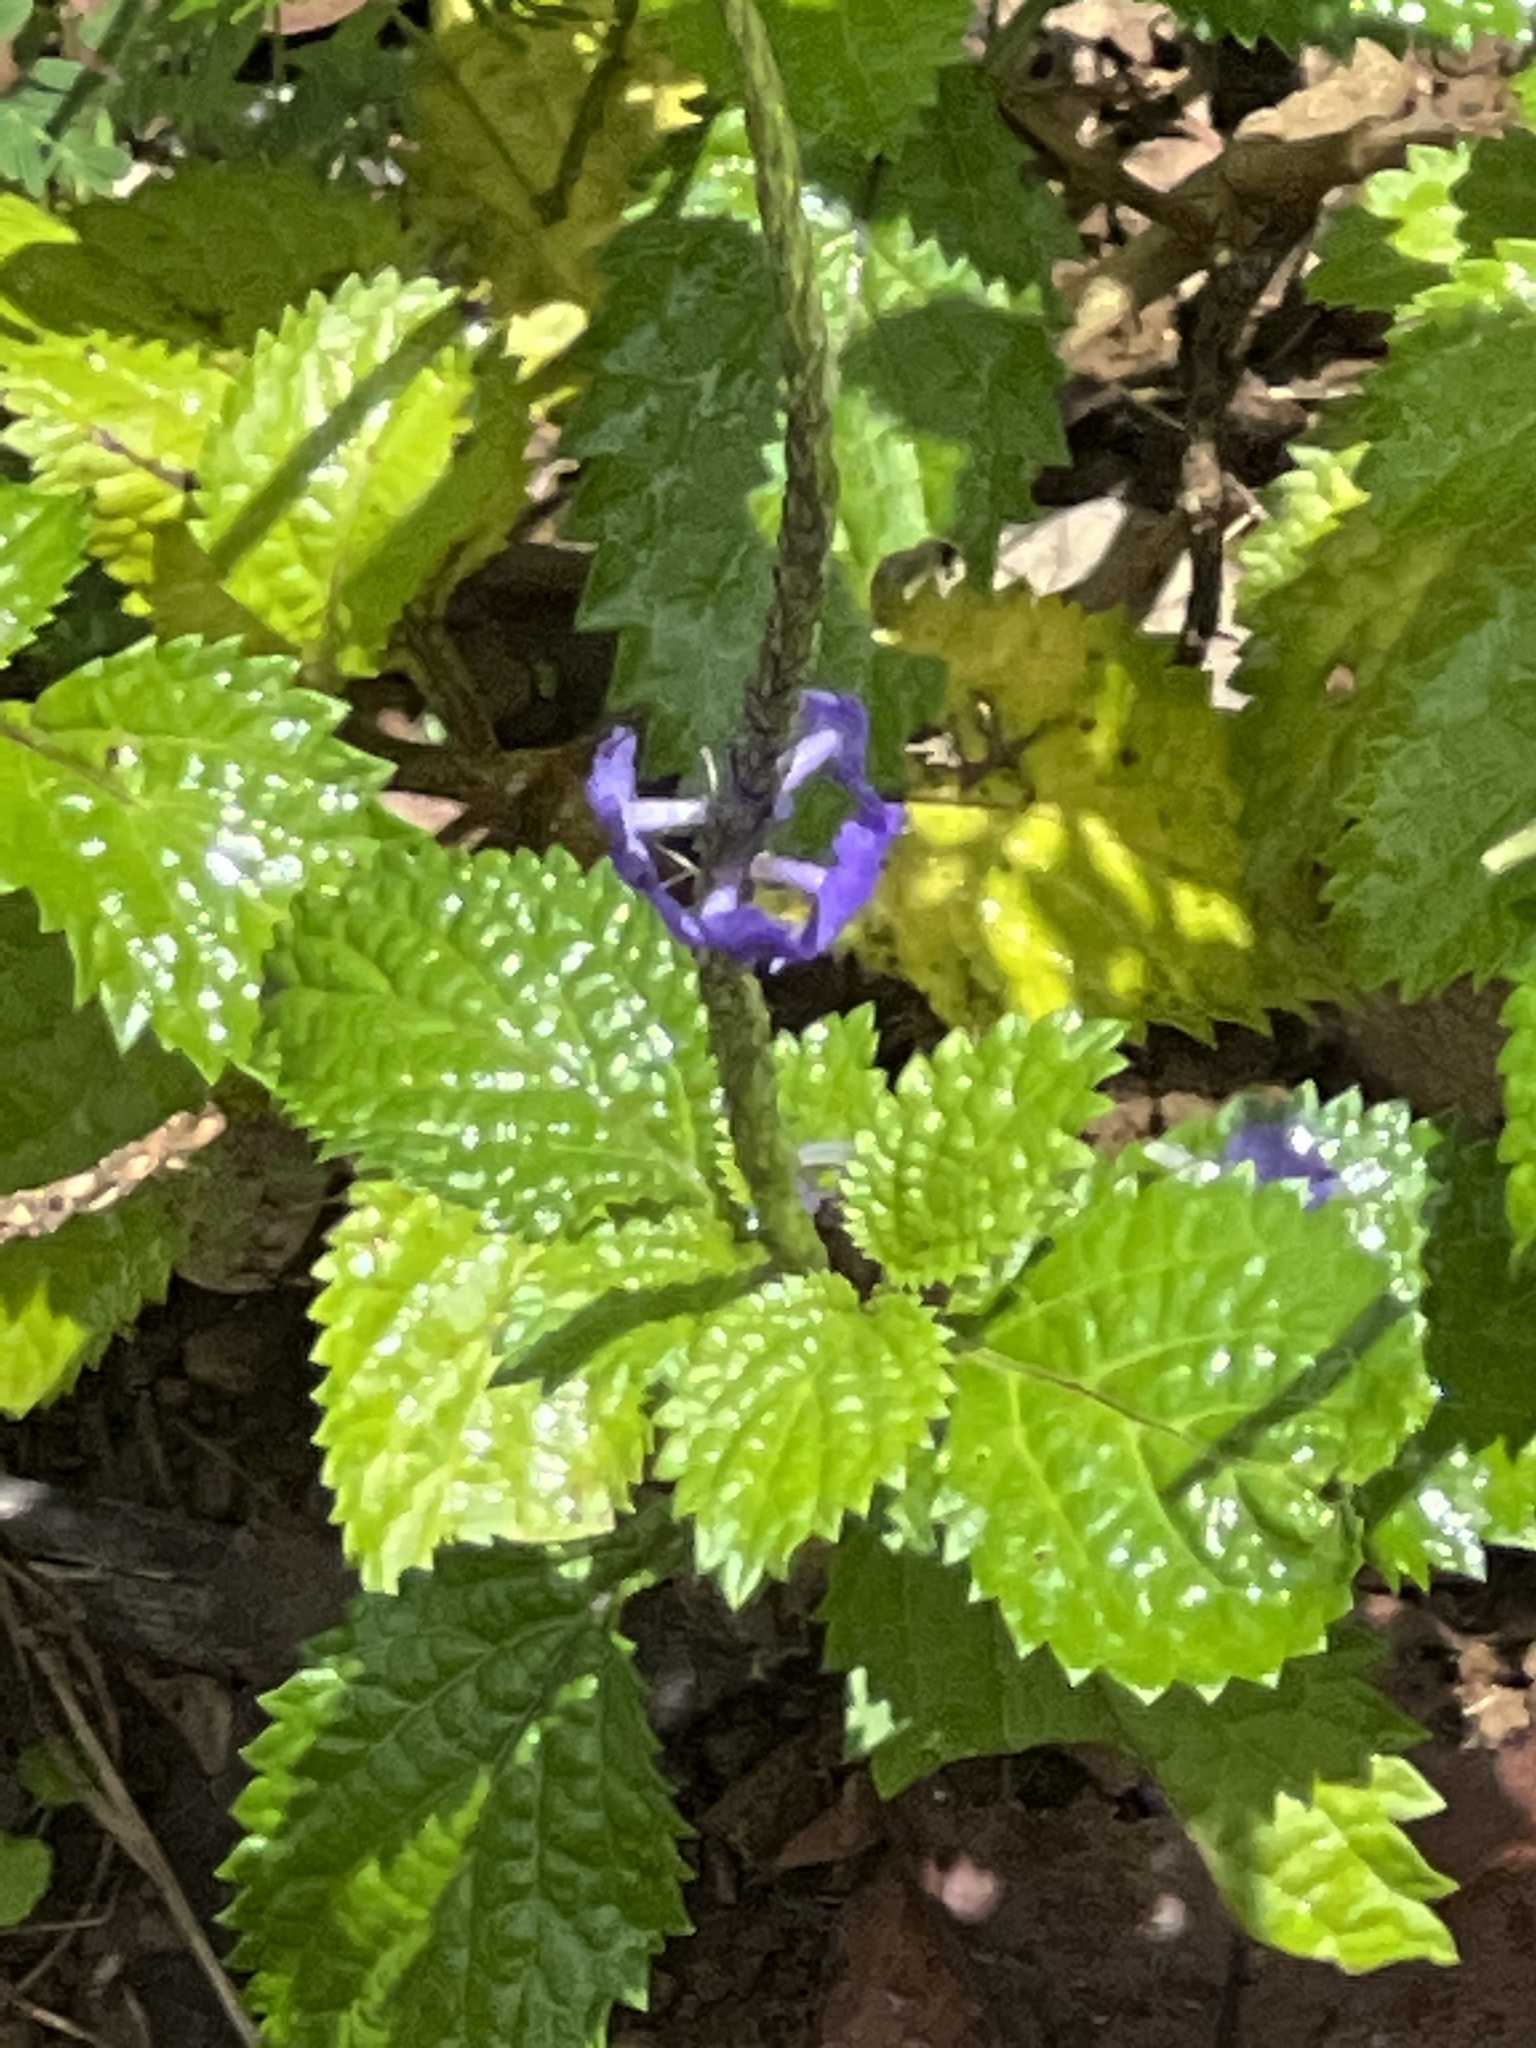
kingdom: Plantae
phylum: Tracheophyta
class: Magnoliopsida
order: Lamiales
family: Verbenaceae
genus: Stachytarpheta
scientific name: Stachytarpheta cayennensis
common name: Cayenne porterweed
